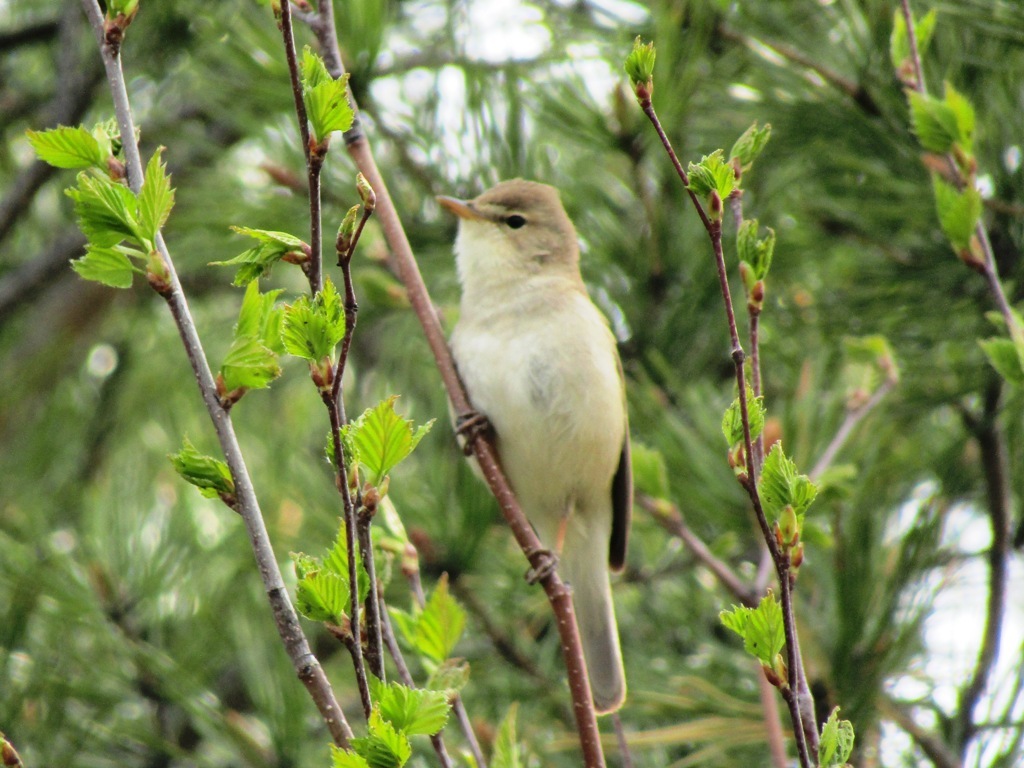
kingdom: Animalia
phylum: Chordata
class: Aves
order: Passeriformes
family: Acrocephalidae
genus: Iduna
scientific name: Iduna caligata
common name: Booted warbler
